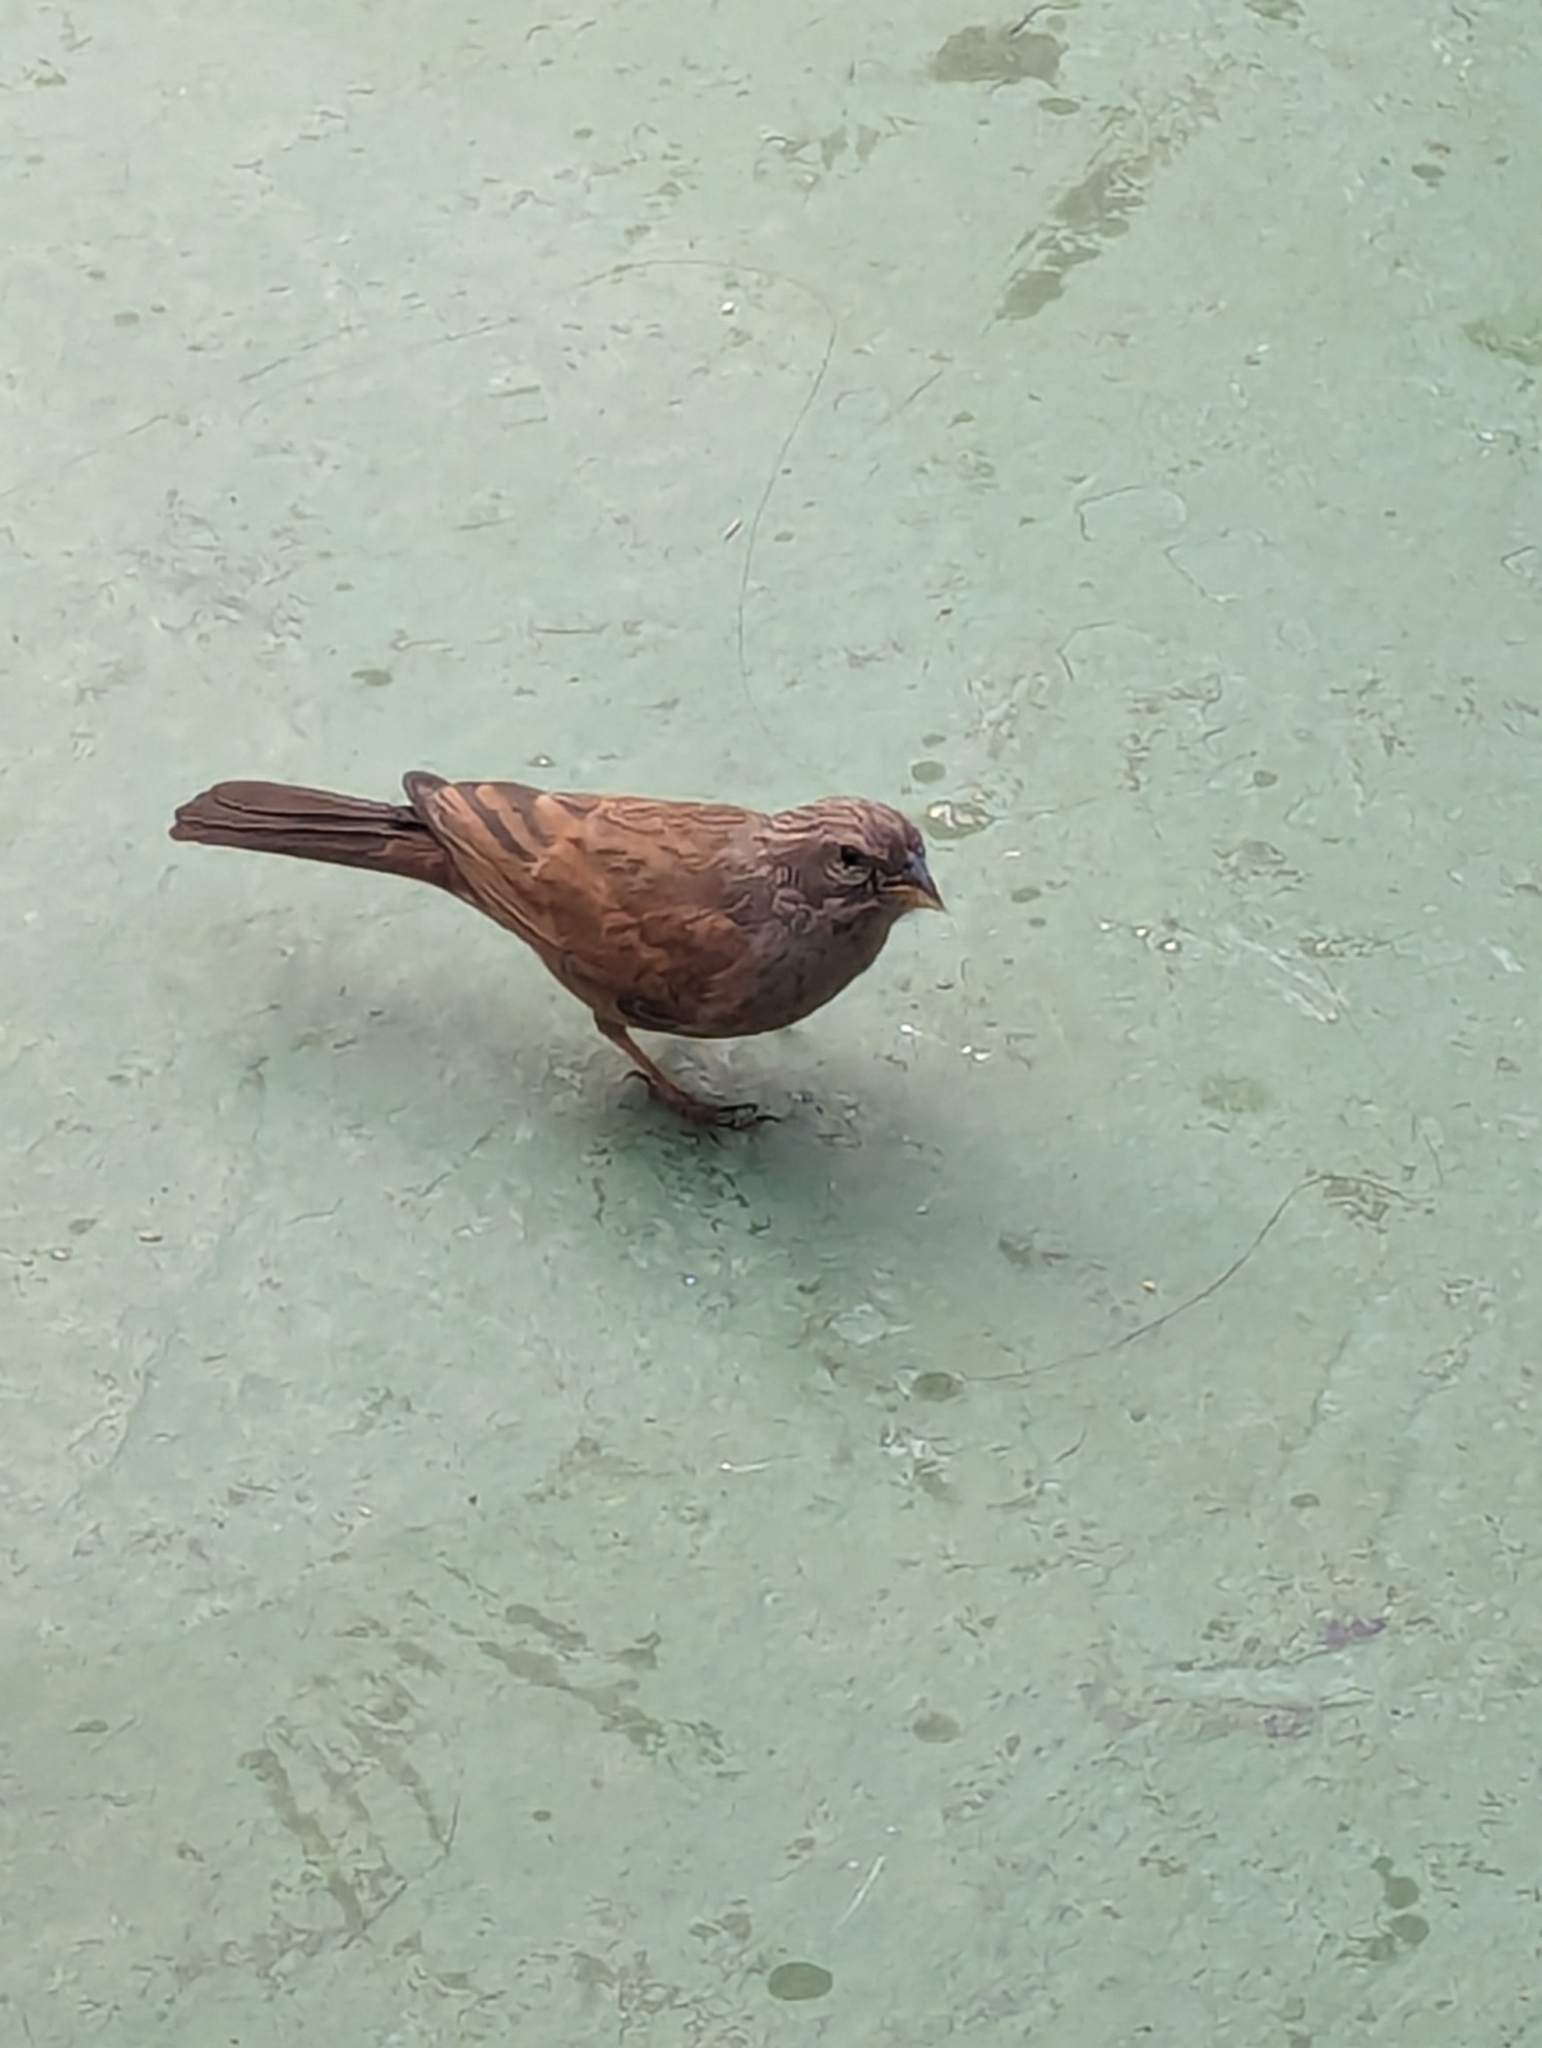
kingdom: Animalia
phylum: Chordata
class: Aves
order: Passeriformes
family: Emberizidae
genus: Emberiza
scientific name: Emberiza sahari
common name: House bunting
